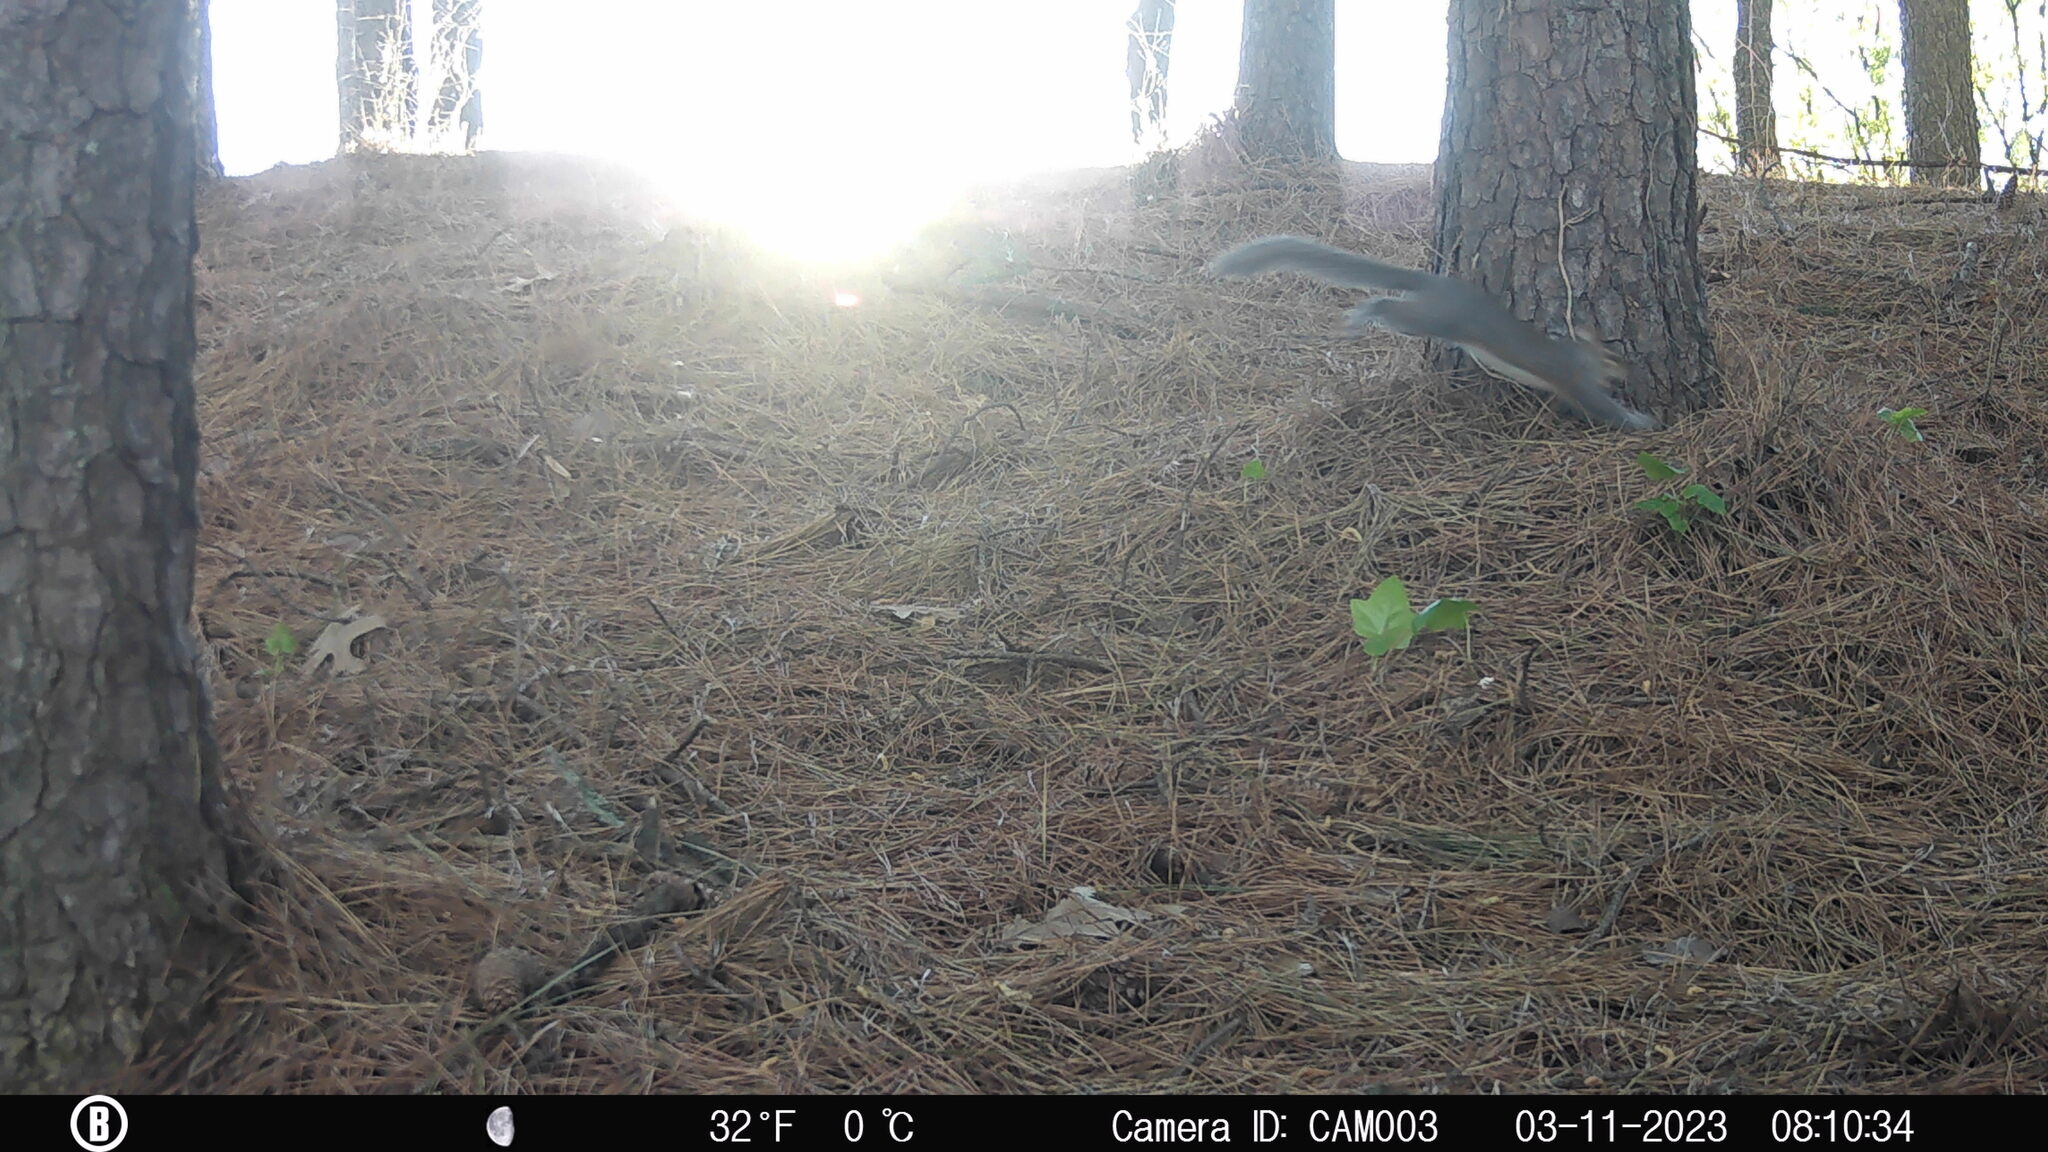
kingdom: Animalia
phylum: Chordata
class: Mammalia
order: Rodentia
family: Sciuridae
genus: Sciurus
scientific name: Sciurus carolinensis
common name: Eastern gray squirrel
